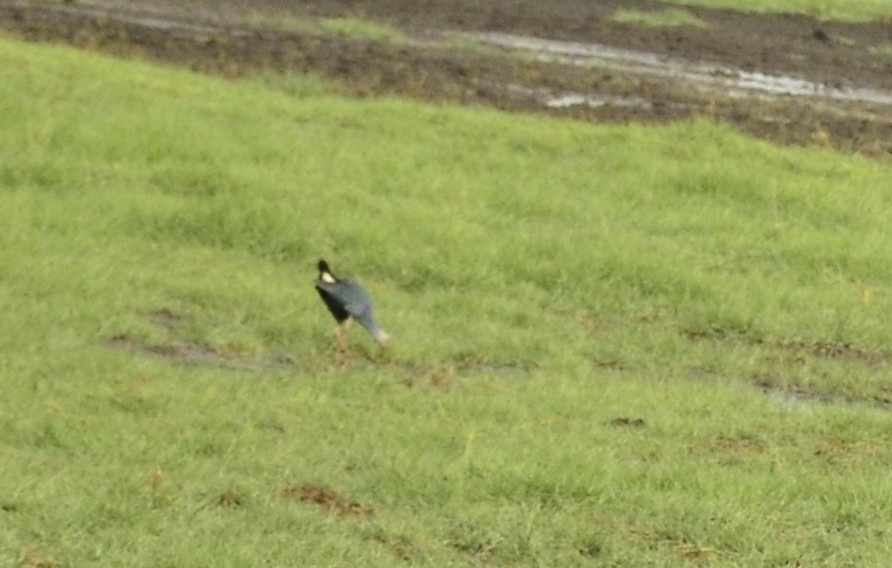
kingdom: Animalia
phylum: Chordata
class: Aves
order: Gruiformes
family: Rallidae
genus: Porphyrio
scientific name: Porphyrio porphyrio
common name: Purple swamphen
